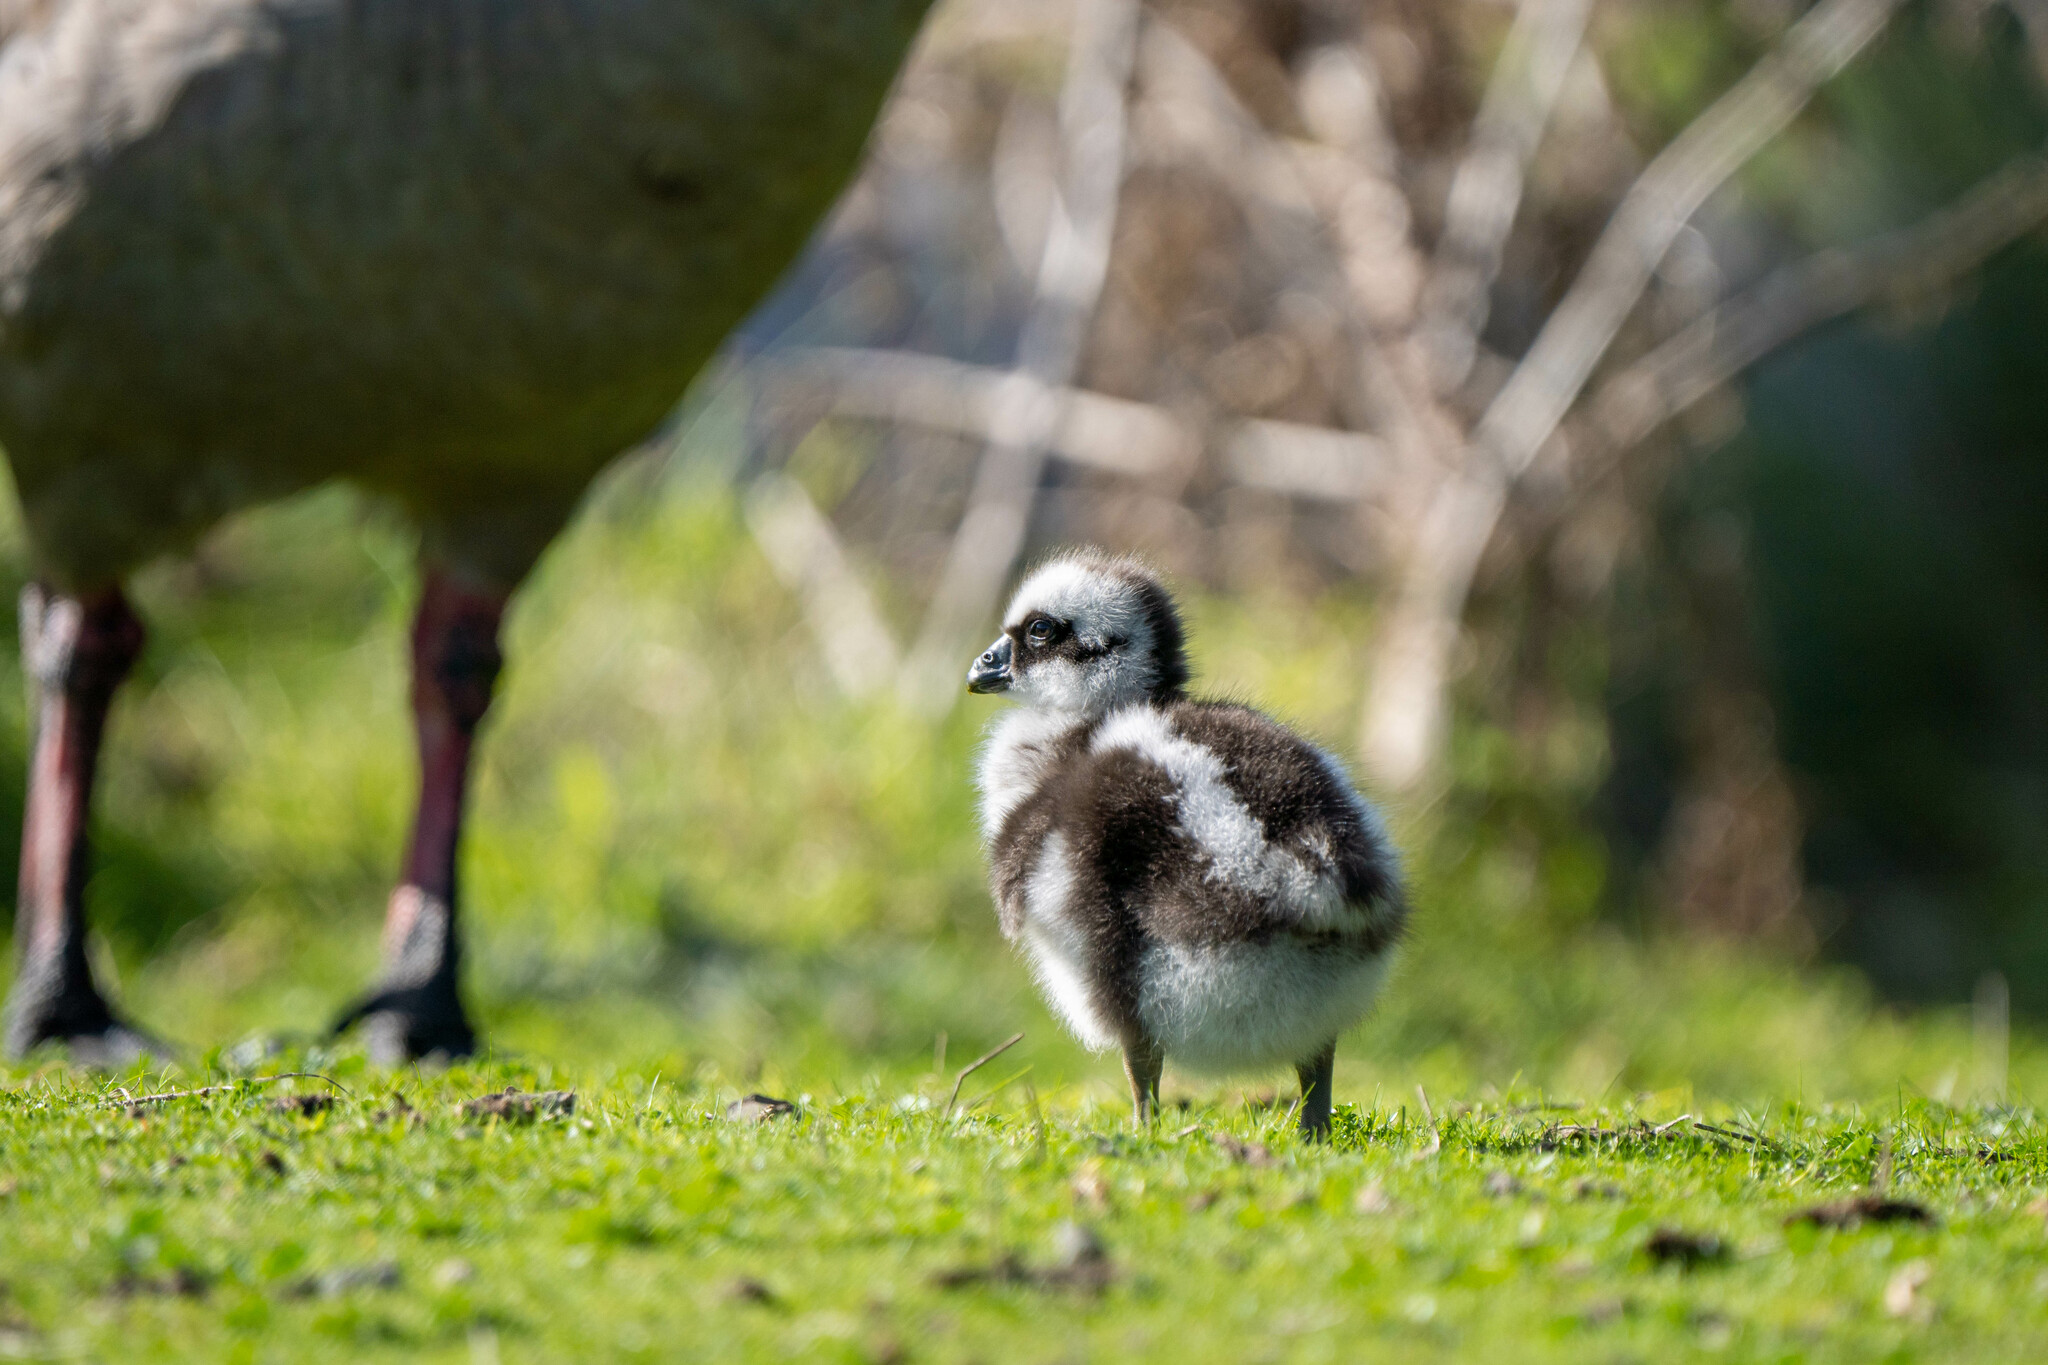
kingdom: Animalia
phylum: Chordata
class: Aves
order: Anseriformes
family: Anatidae
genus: Cereopsis
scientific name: Cereopsis novaehollandiae
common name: Cape barren goose
